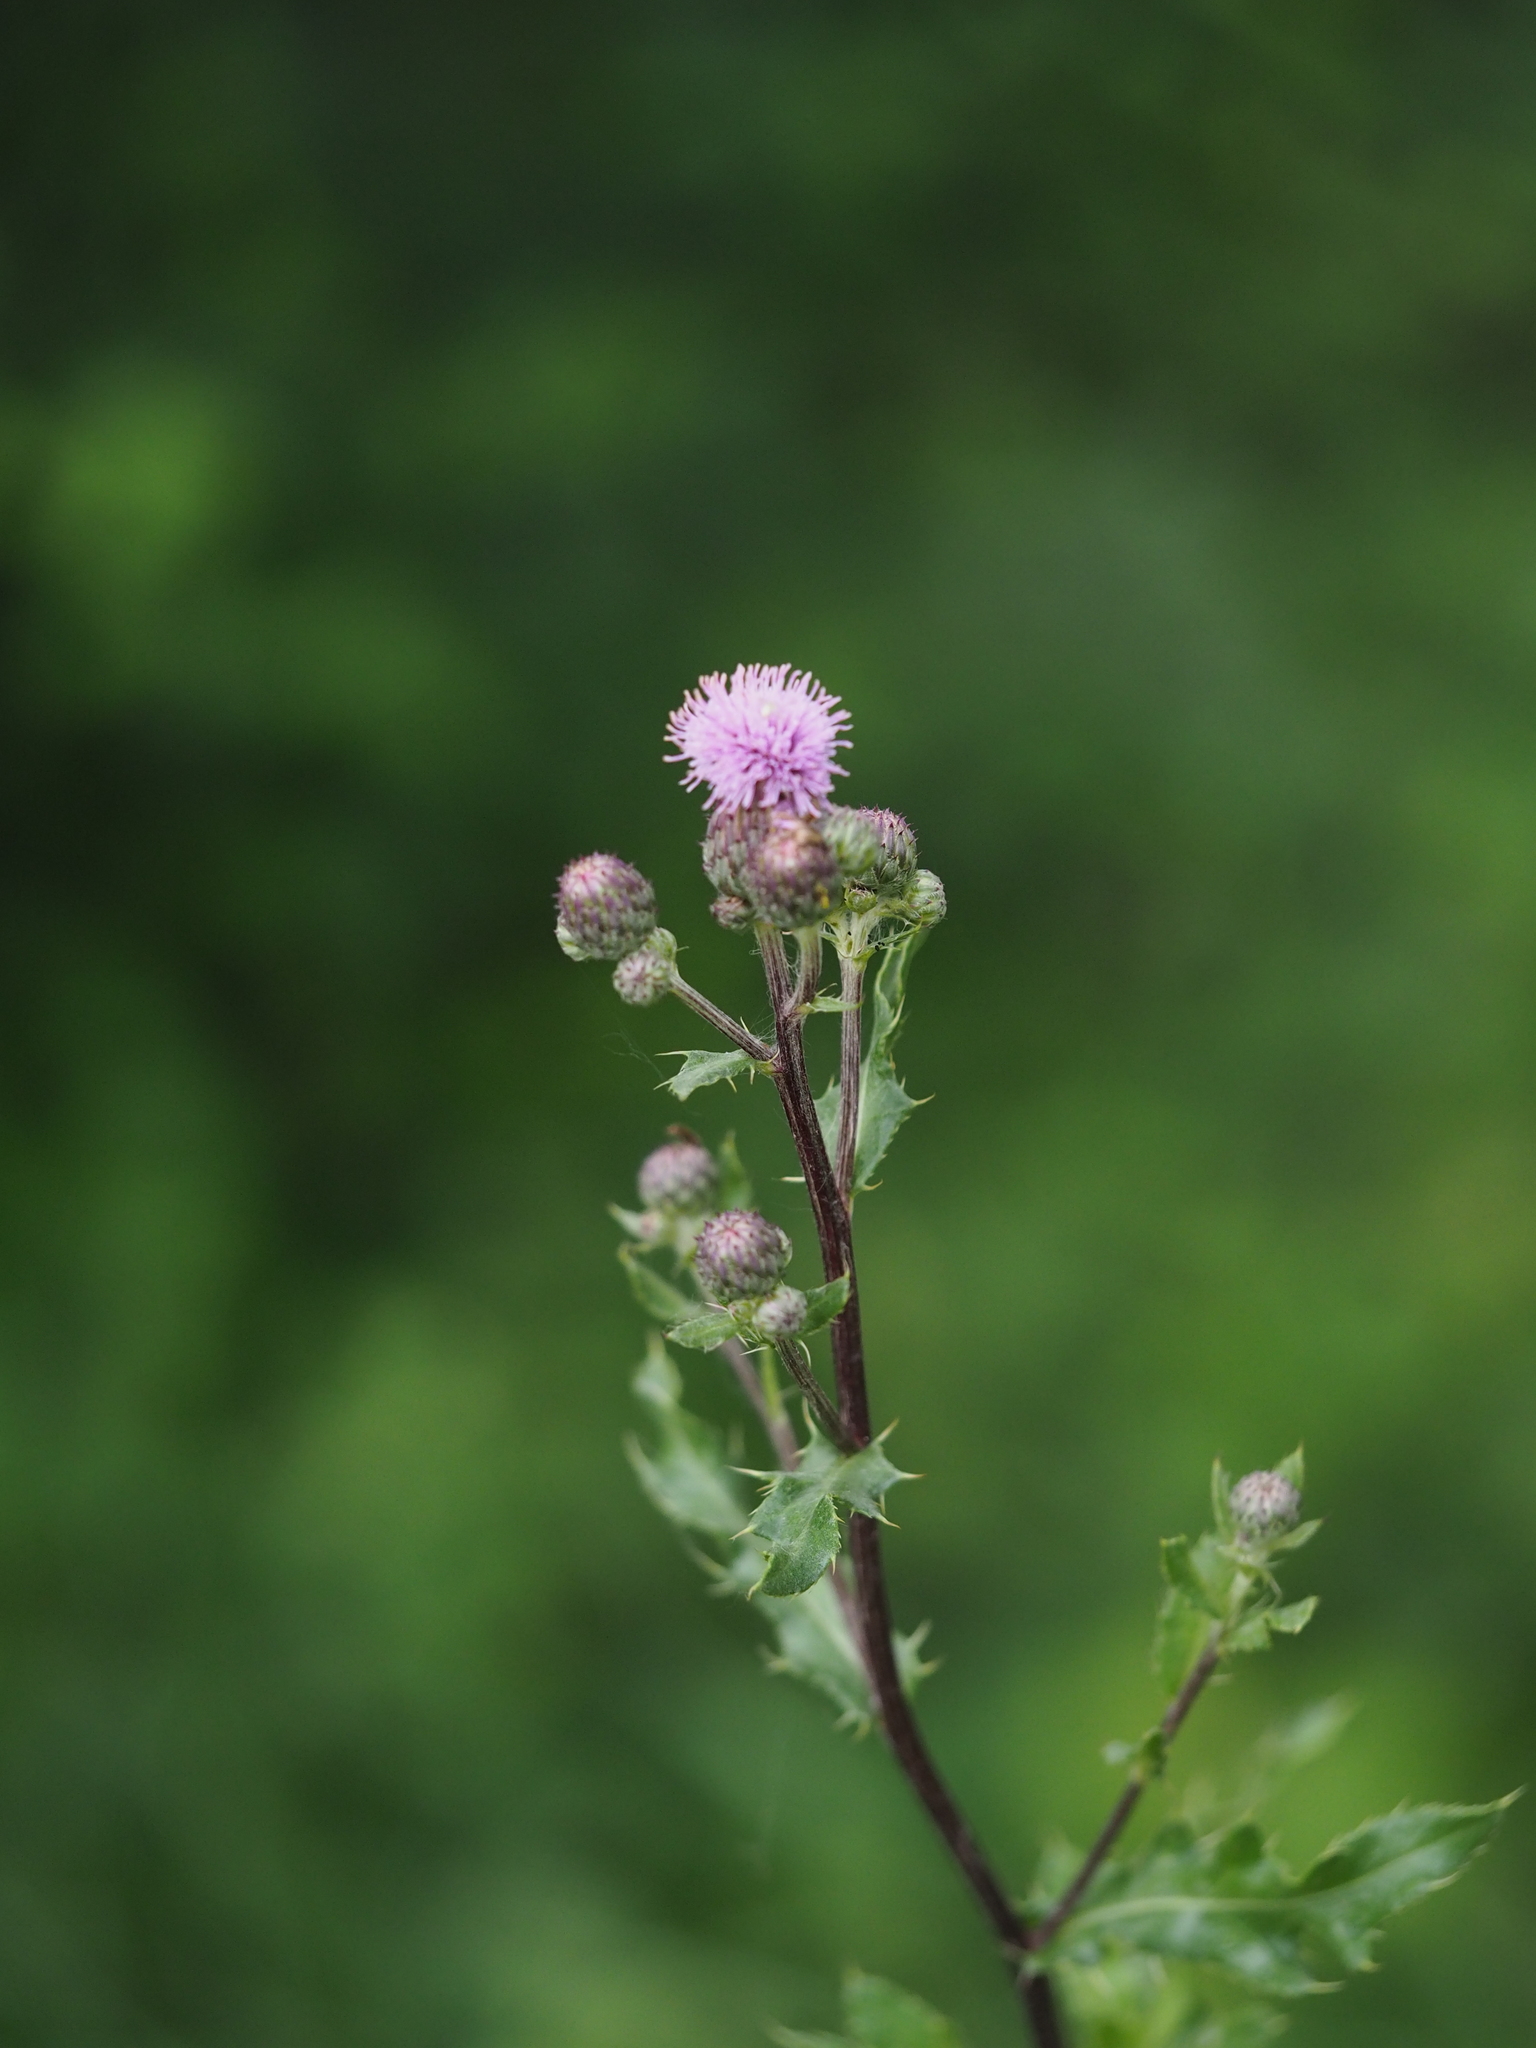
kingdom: Plantae
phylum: Tracheophyta
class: Magnoliopsida
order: Asterales
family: Asteraceae
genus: Cirsium
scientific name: Cirsium arvense
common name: Creeping thistle
